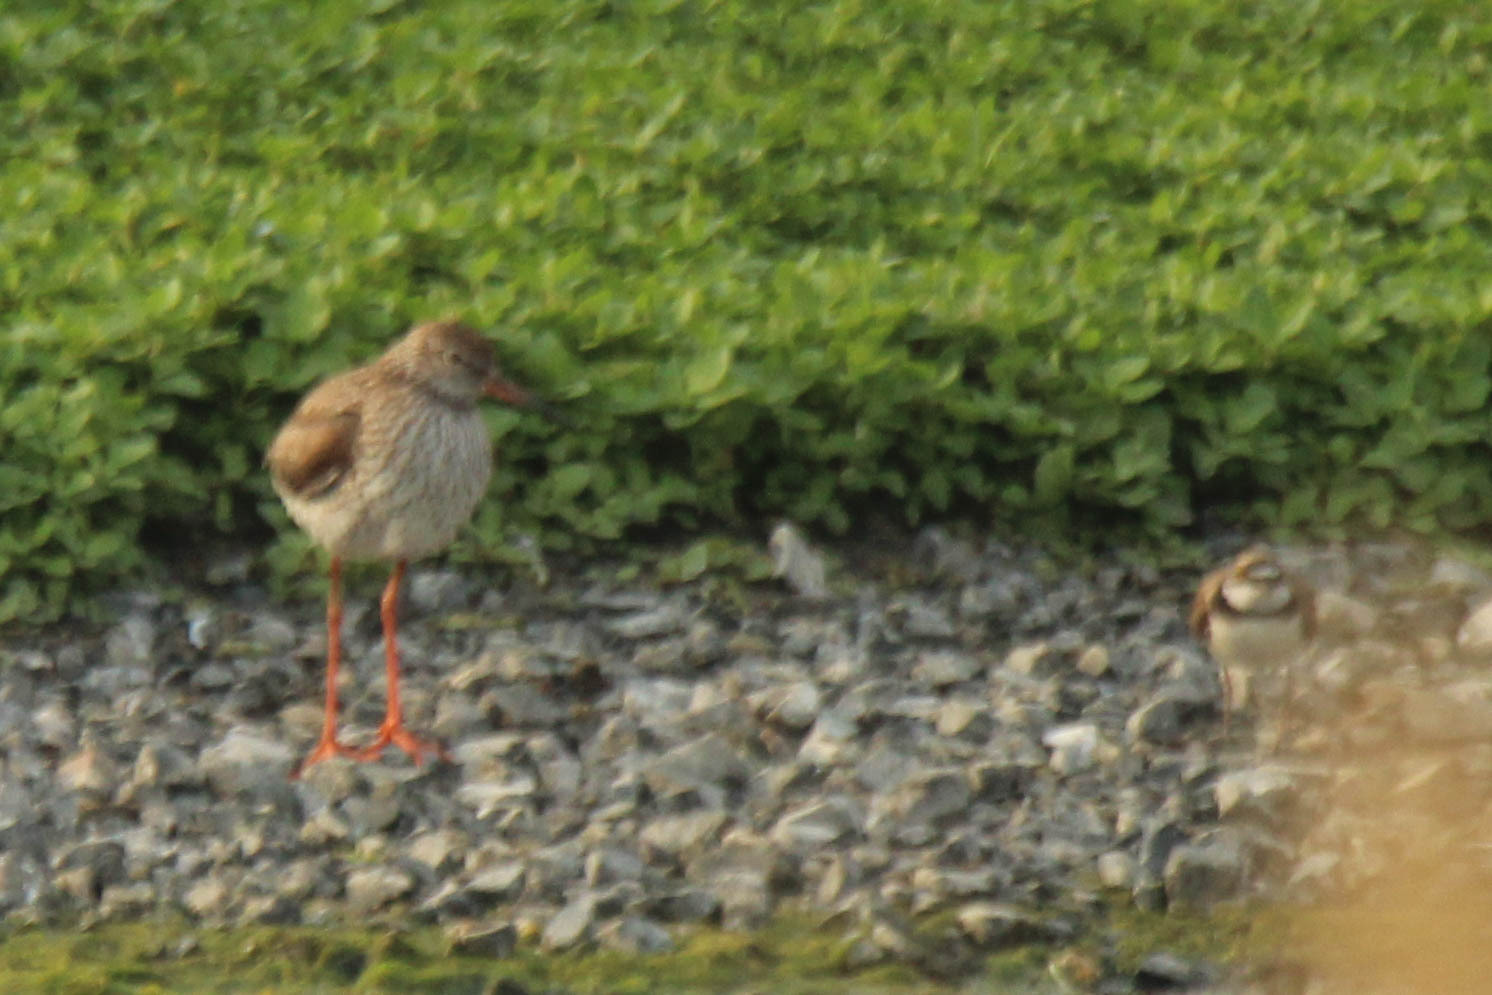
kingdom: Animalia
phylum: Chordata
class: Aves
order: Charadriiformes
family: Scolopacidae
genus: Tringa
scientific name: Tringa totanus
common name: Common redshank
